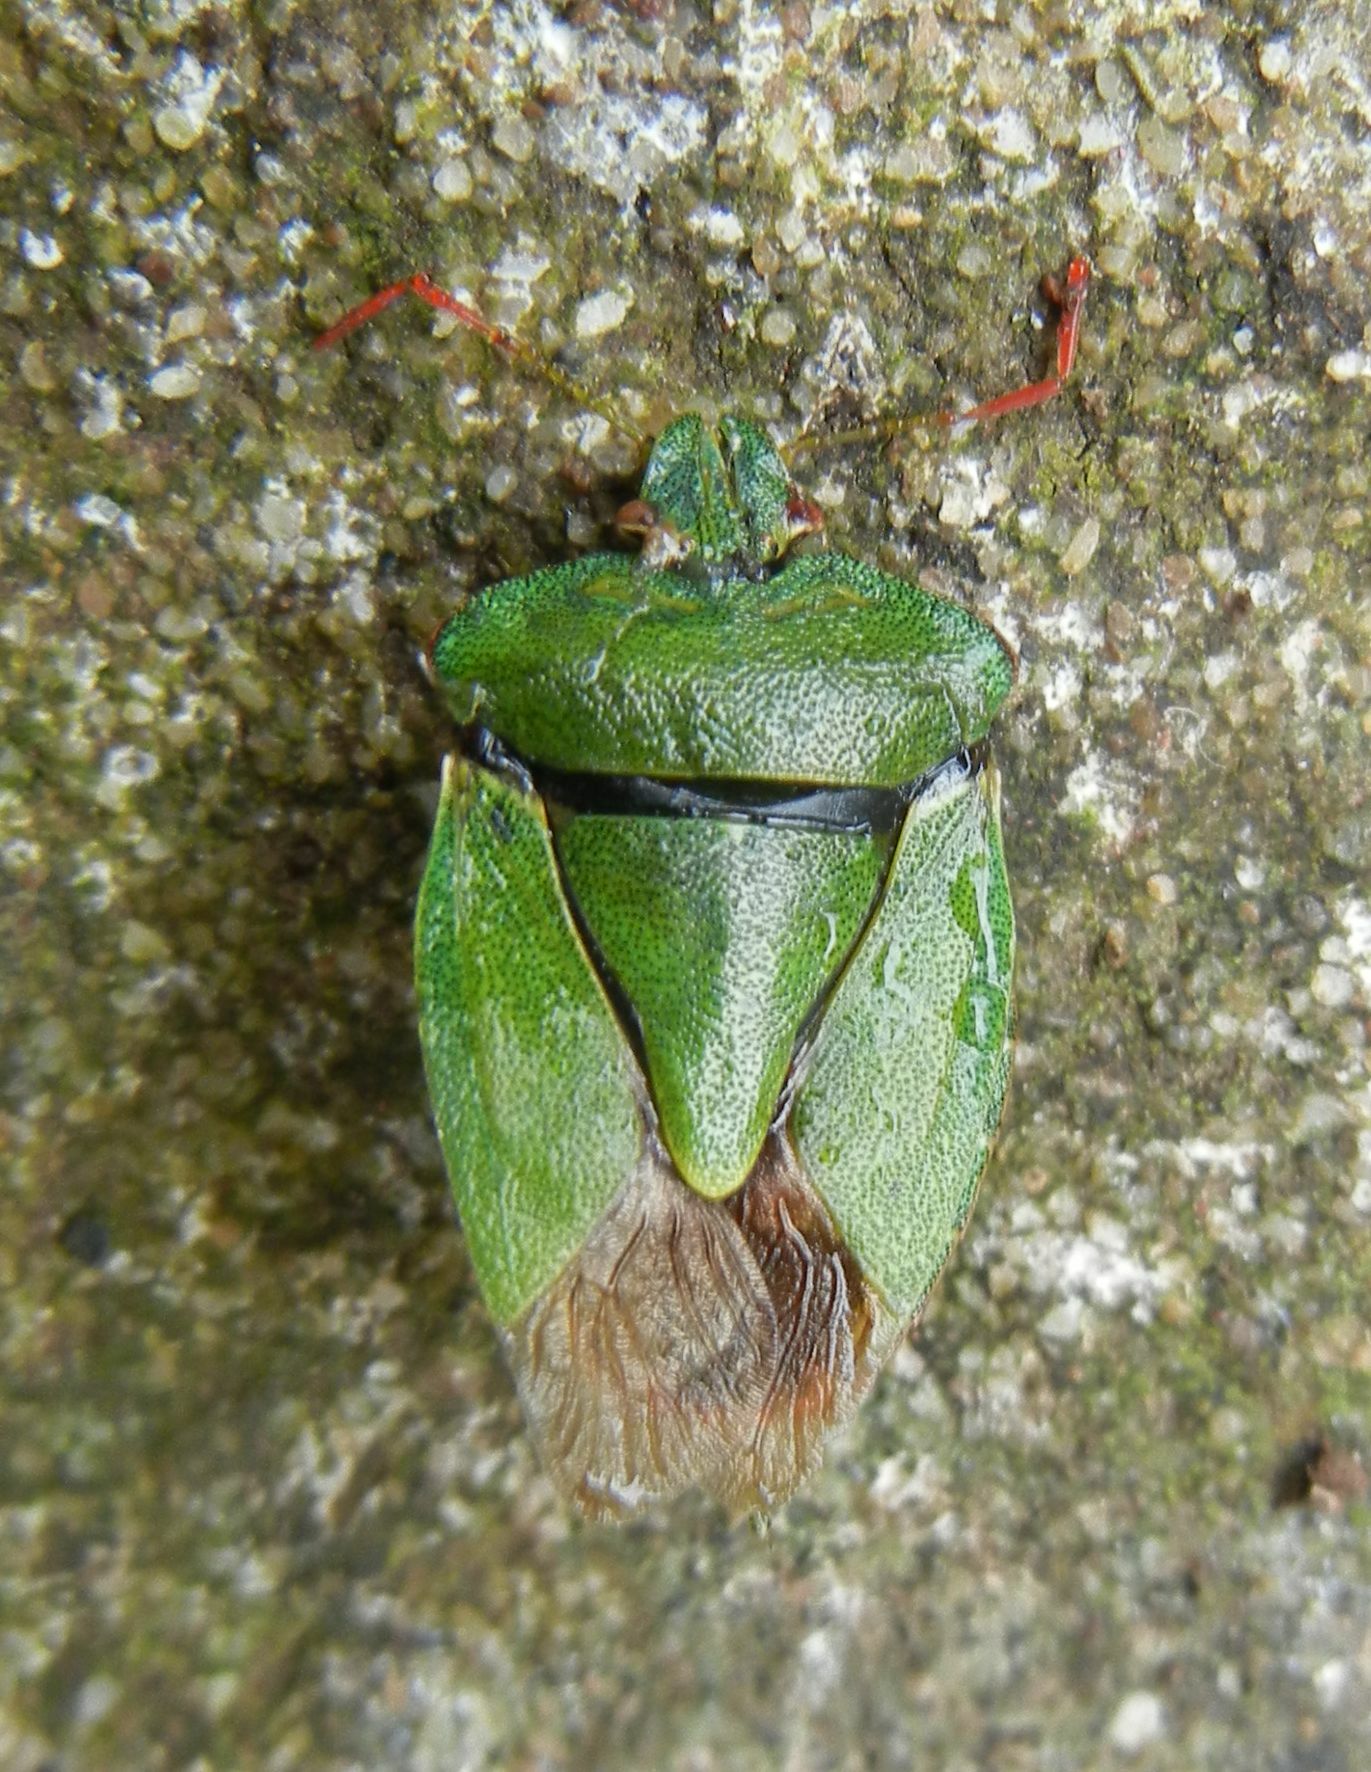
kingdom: Animalia
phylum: Arthropoda
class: Insecta
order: Hemiptera
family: Pentatomidae
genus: Palomena
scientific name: Palomena prasina
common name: Green shieldbug
